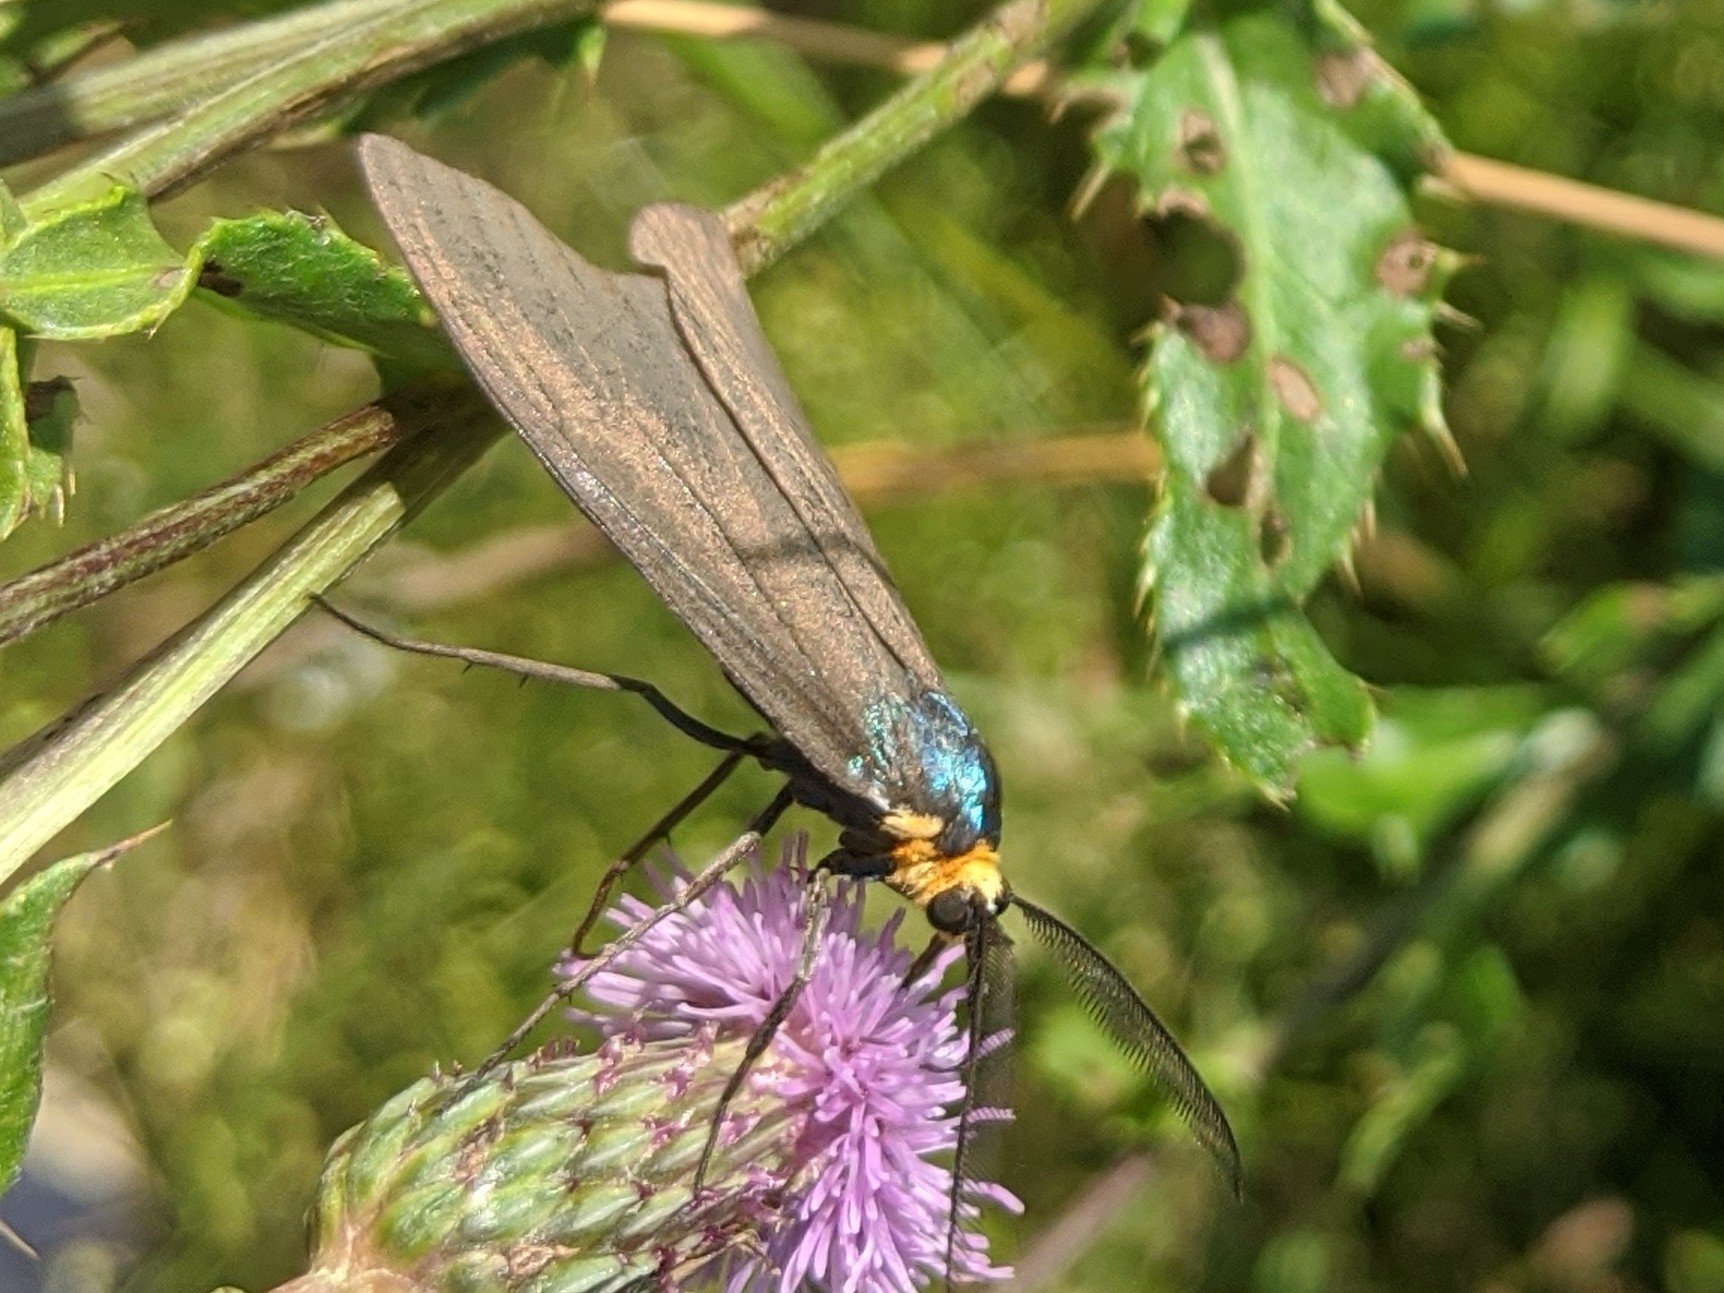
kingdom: Animalia
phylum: Arthropoda
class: Insecta
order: Lepidoptera
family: Erebidae
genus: Ctenucha
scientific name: Ctenucha virginica
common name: Virginia ctenucha moth
